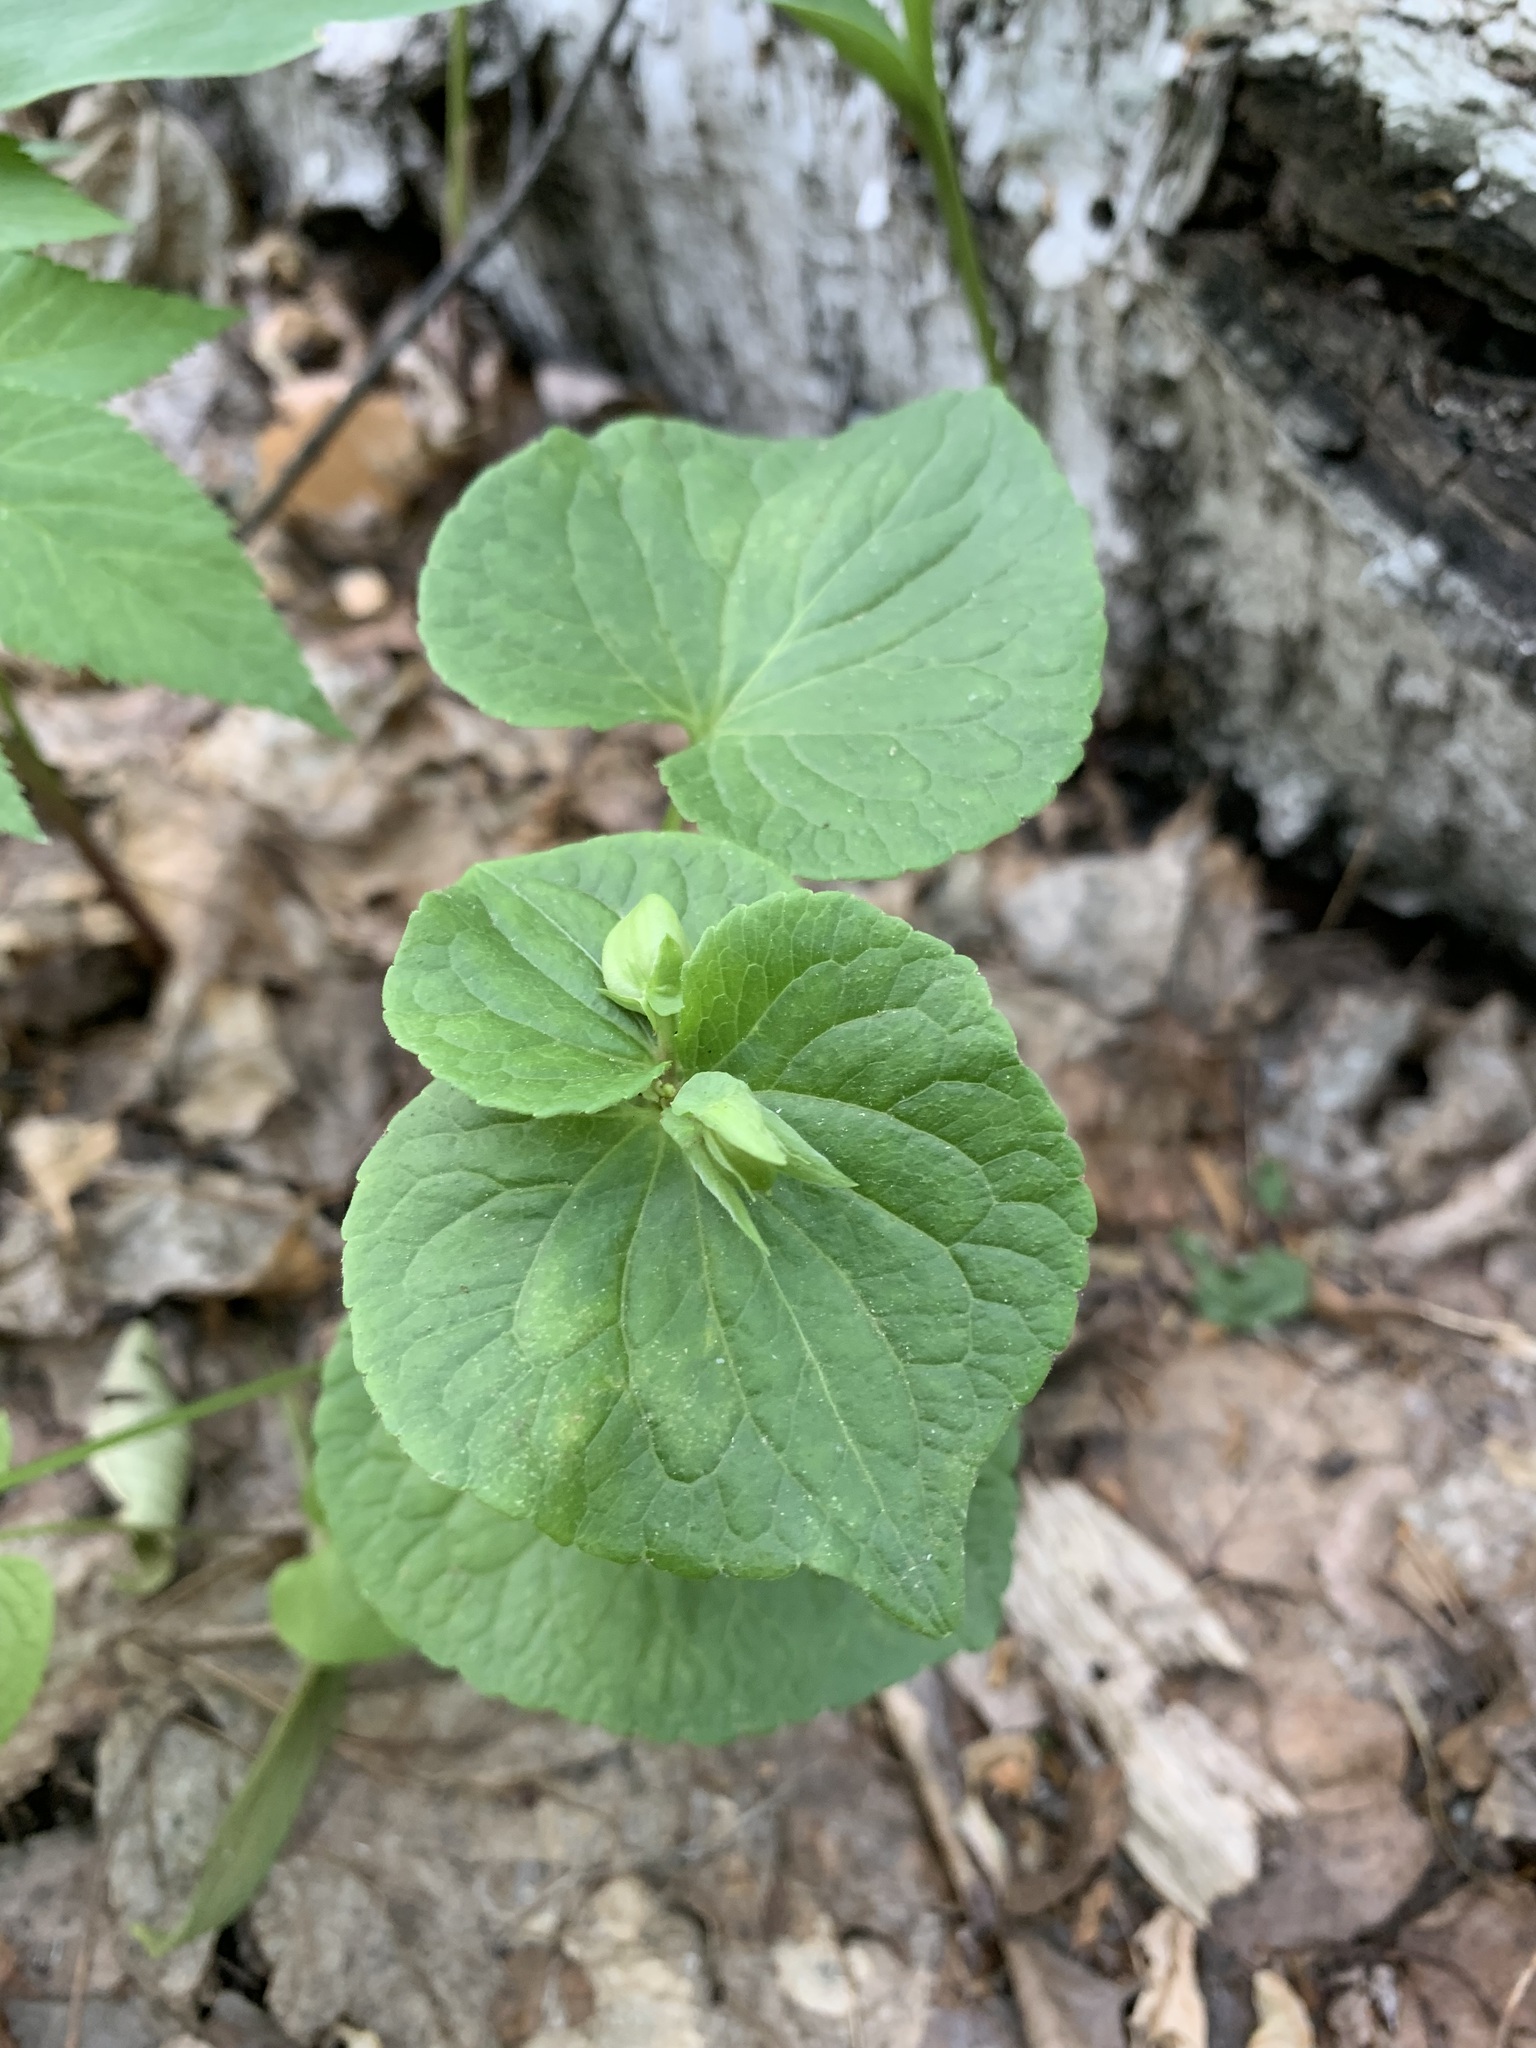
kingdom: Plantae
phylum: Tracheophyta
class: Magnoliopsida
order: Malpighiales
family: Violaceae
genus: Viola
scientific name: Viola mirabilis
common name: Wonder violet
